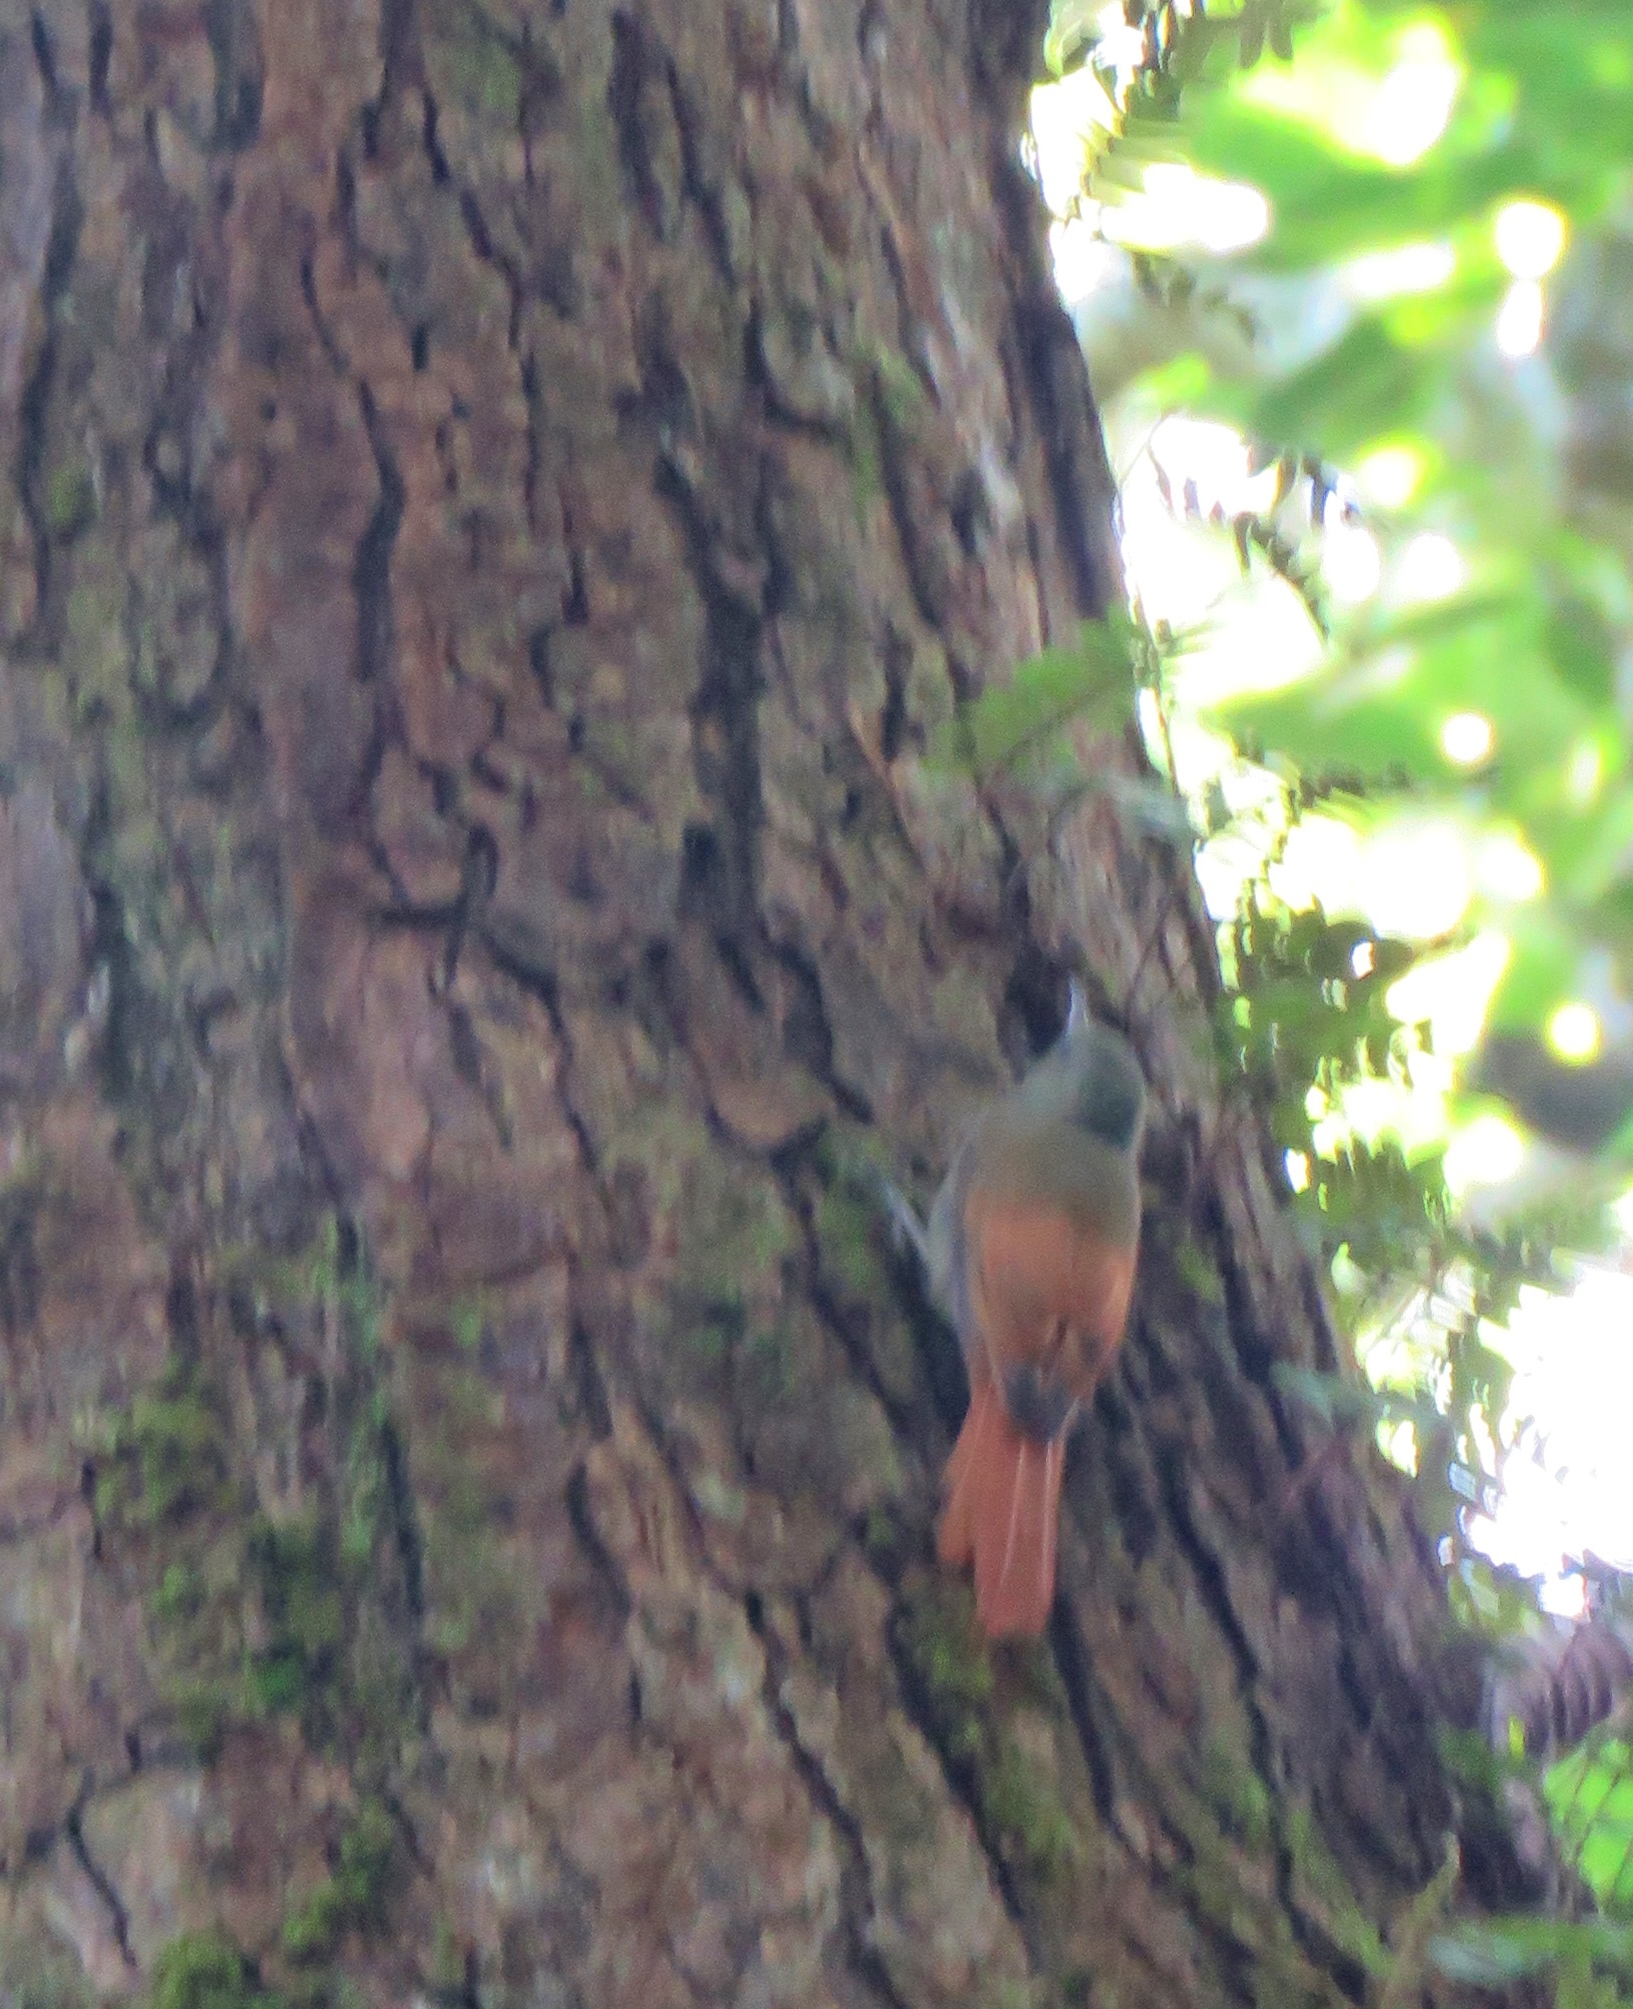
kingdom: Animalia
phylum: Chordata
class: Aves
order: Passeriformes
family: Furnariidae
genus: Sittasomus
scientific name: Sittasomus griseicapillus
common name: Olivaceous woodcreeper
